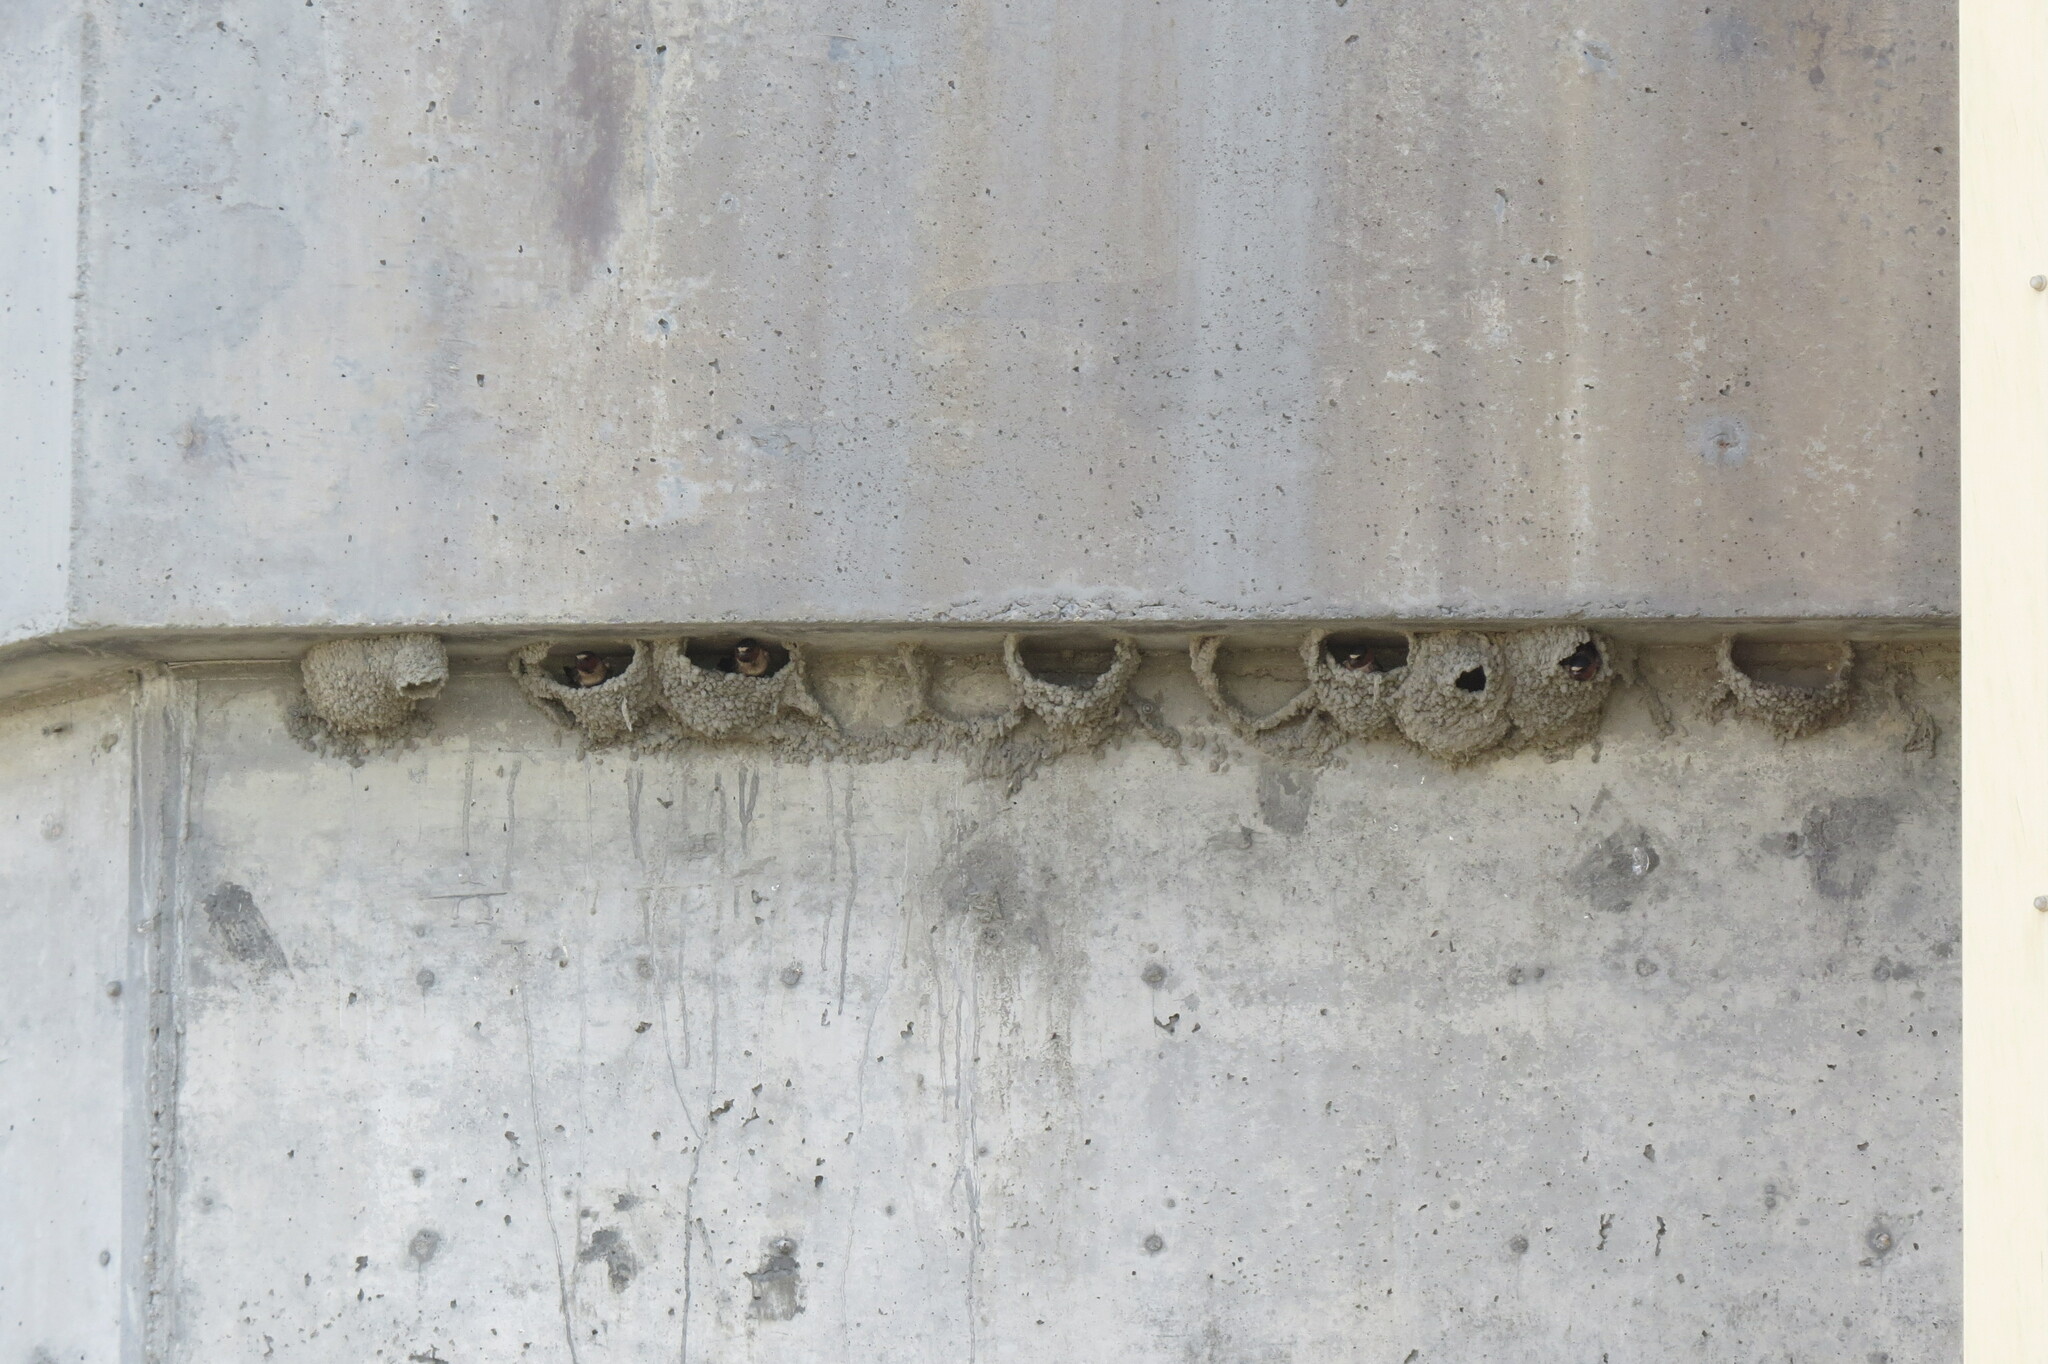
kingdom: Animalia
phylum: Chordata
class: Aves
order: Passeriformes
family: Hirundinidae
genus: Petrochelidon
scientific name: Petrochelidon pyrrhonota
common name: American cliff swallow
